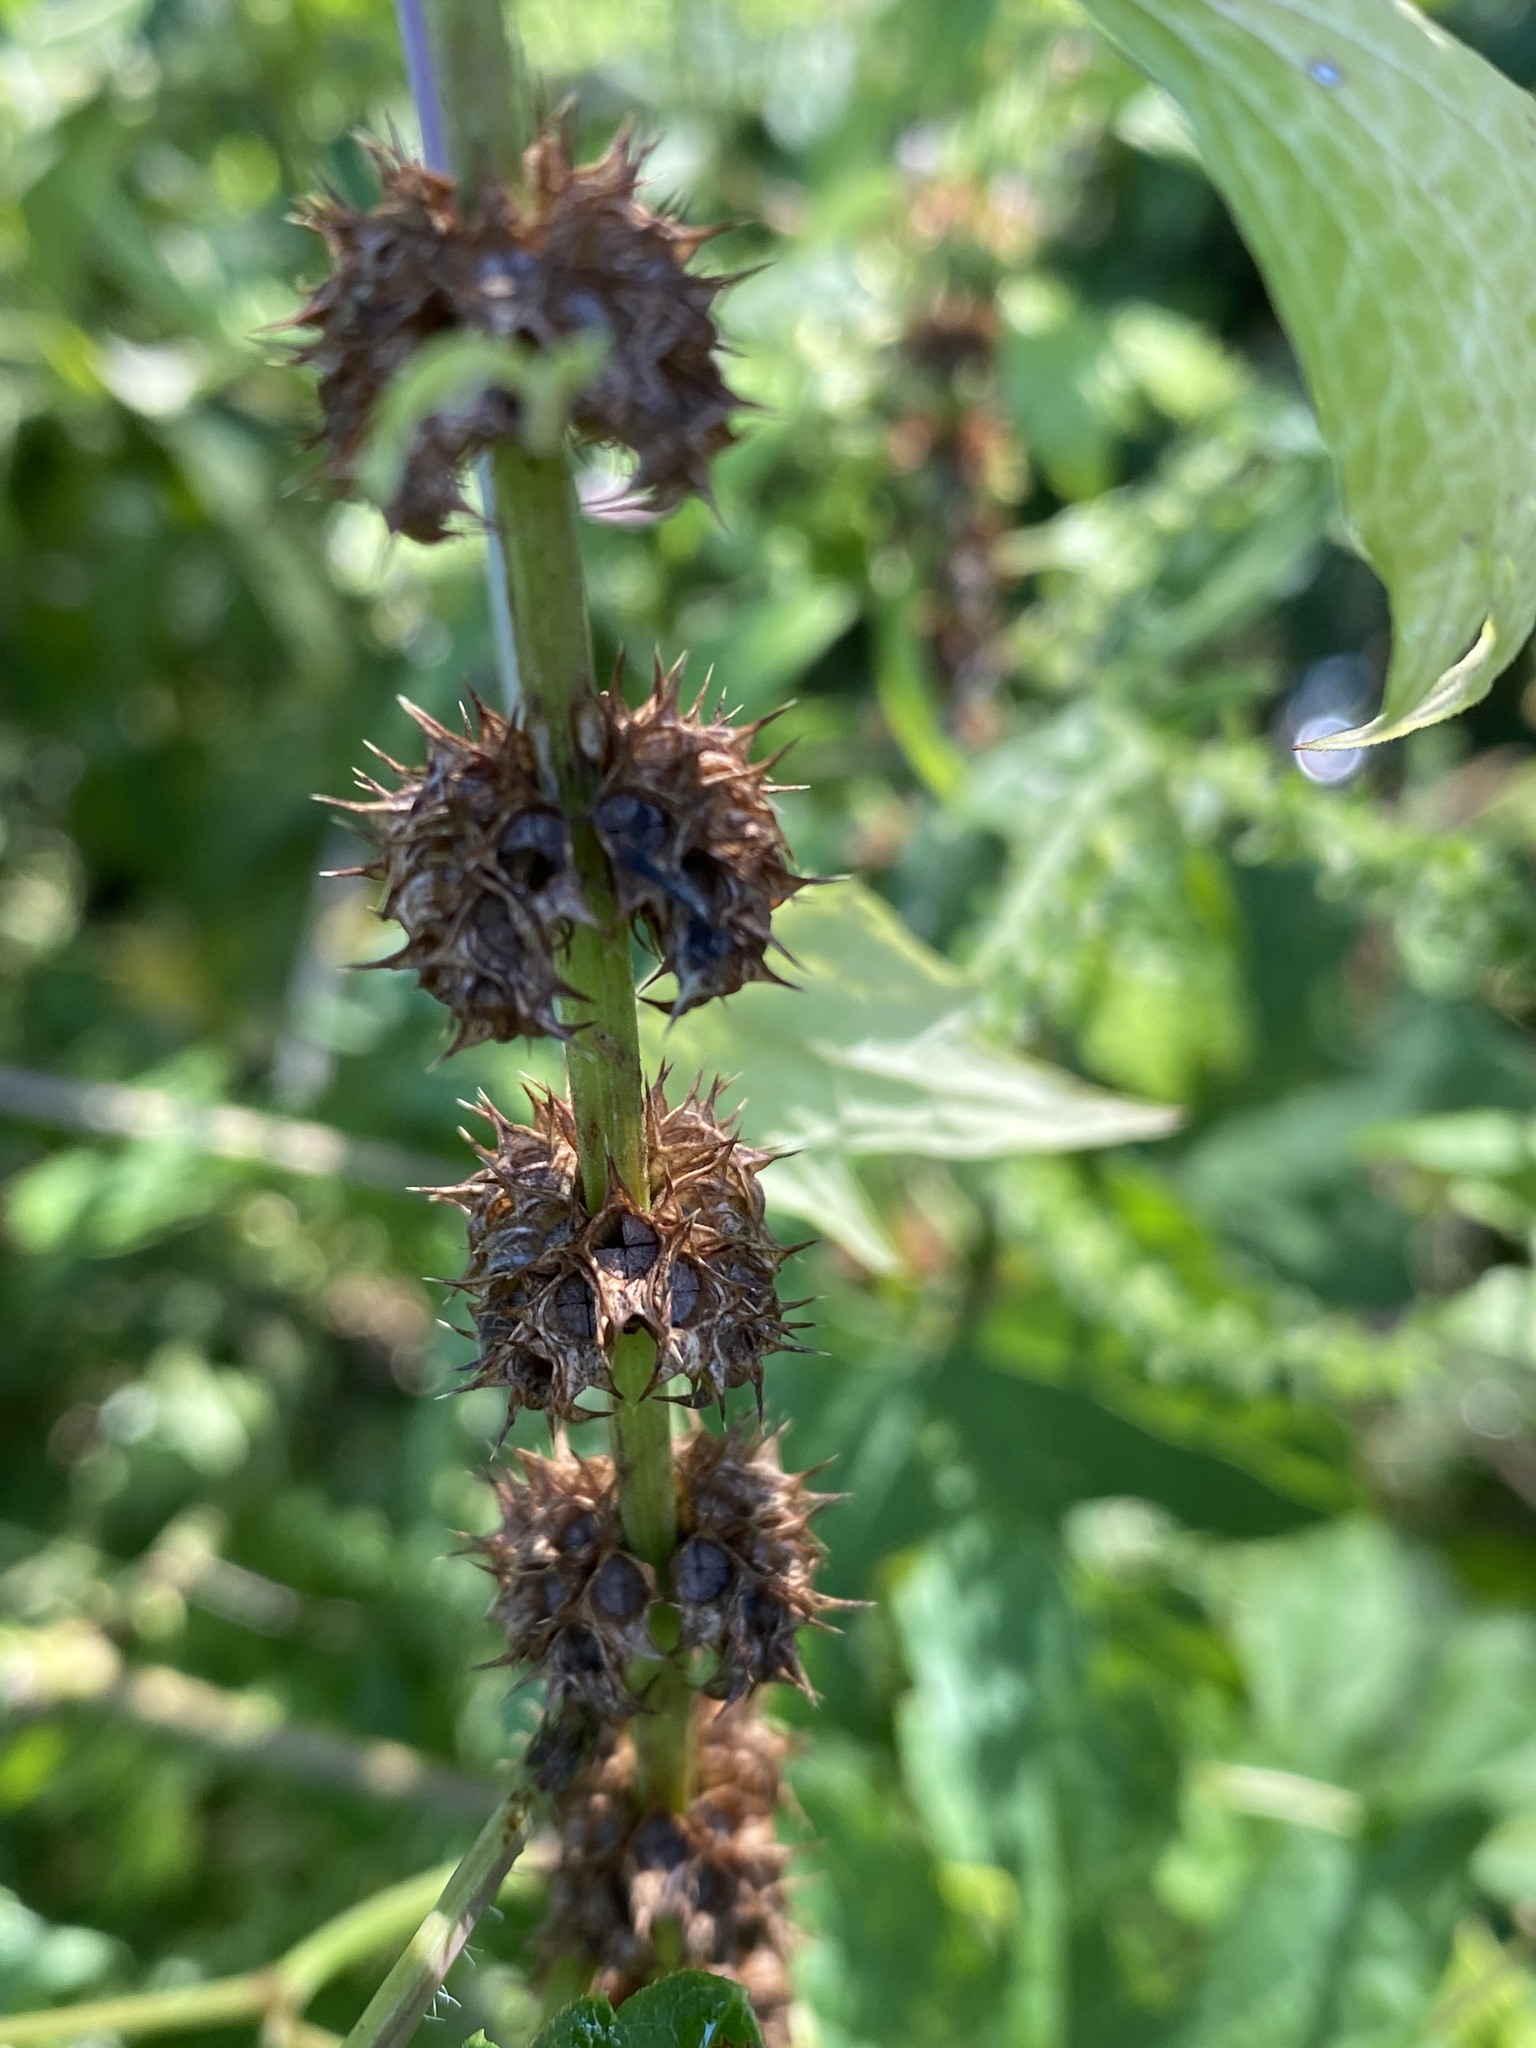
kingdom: Plantae
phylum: Tracheophyta
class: Magnoliopsida
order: Lamiales
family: Lamiaceae
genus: Leonurus
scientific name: Leonurus cardiaca
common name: Motherwort
